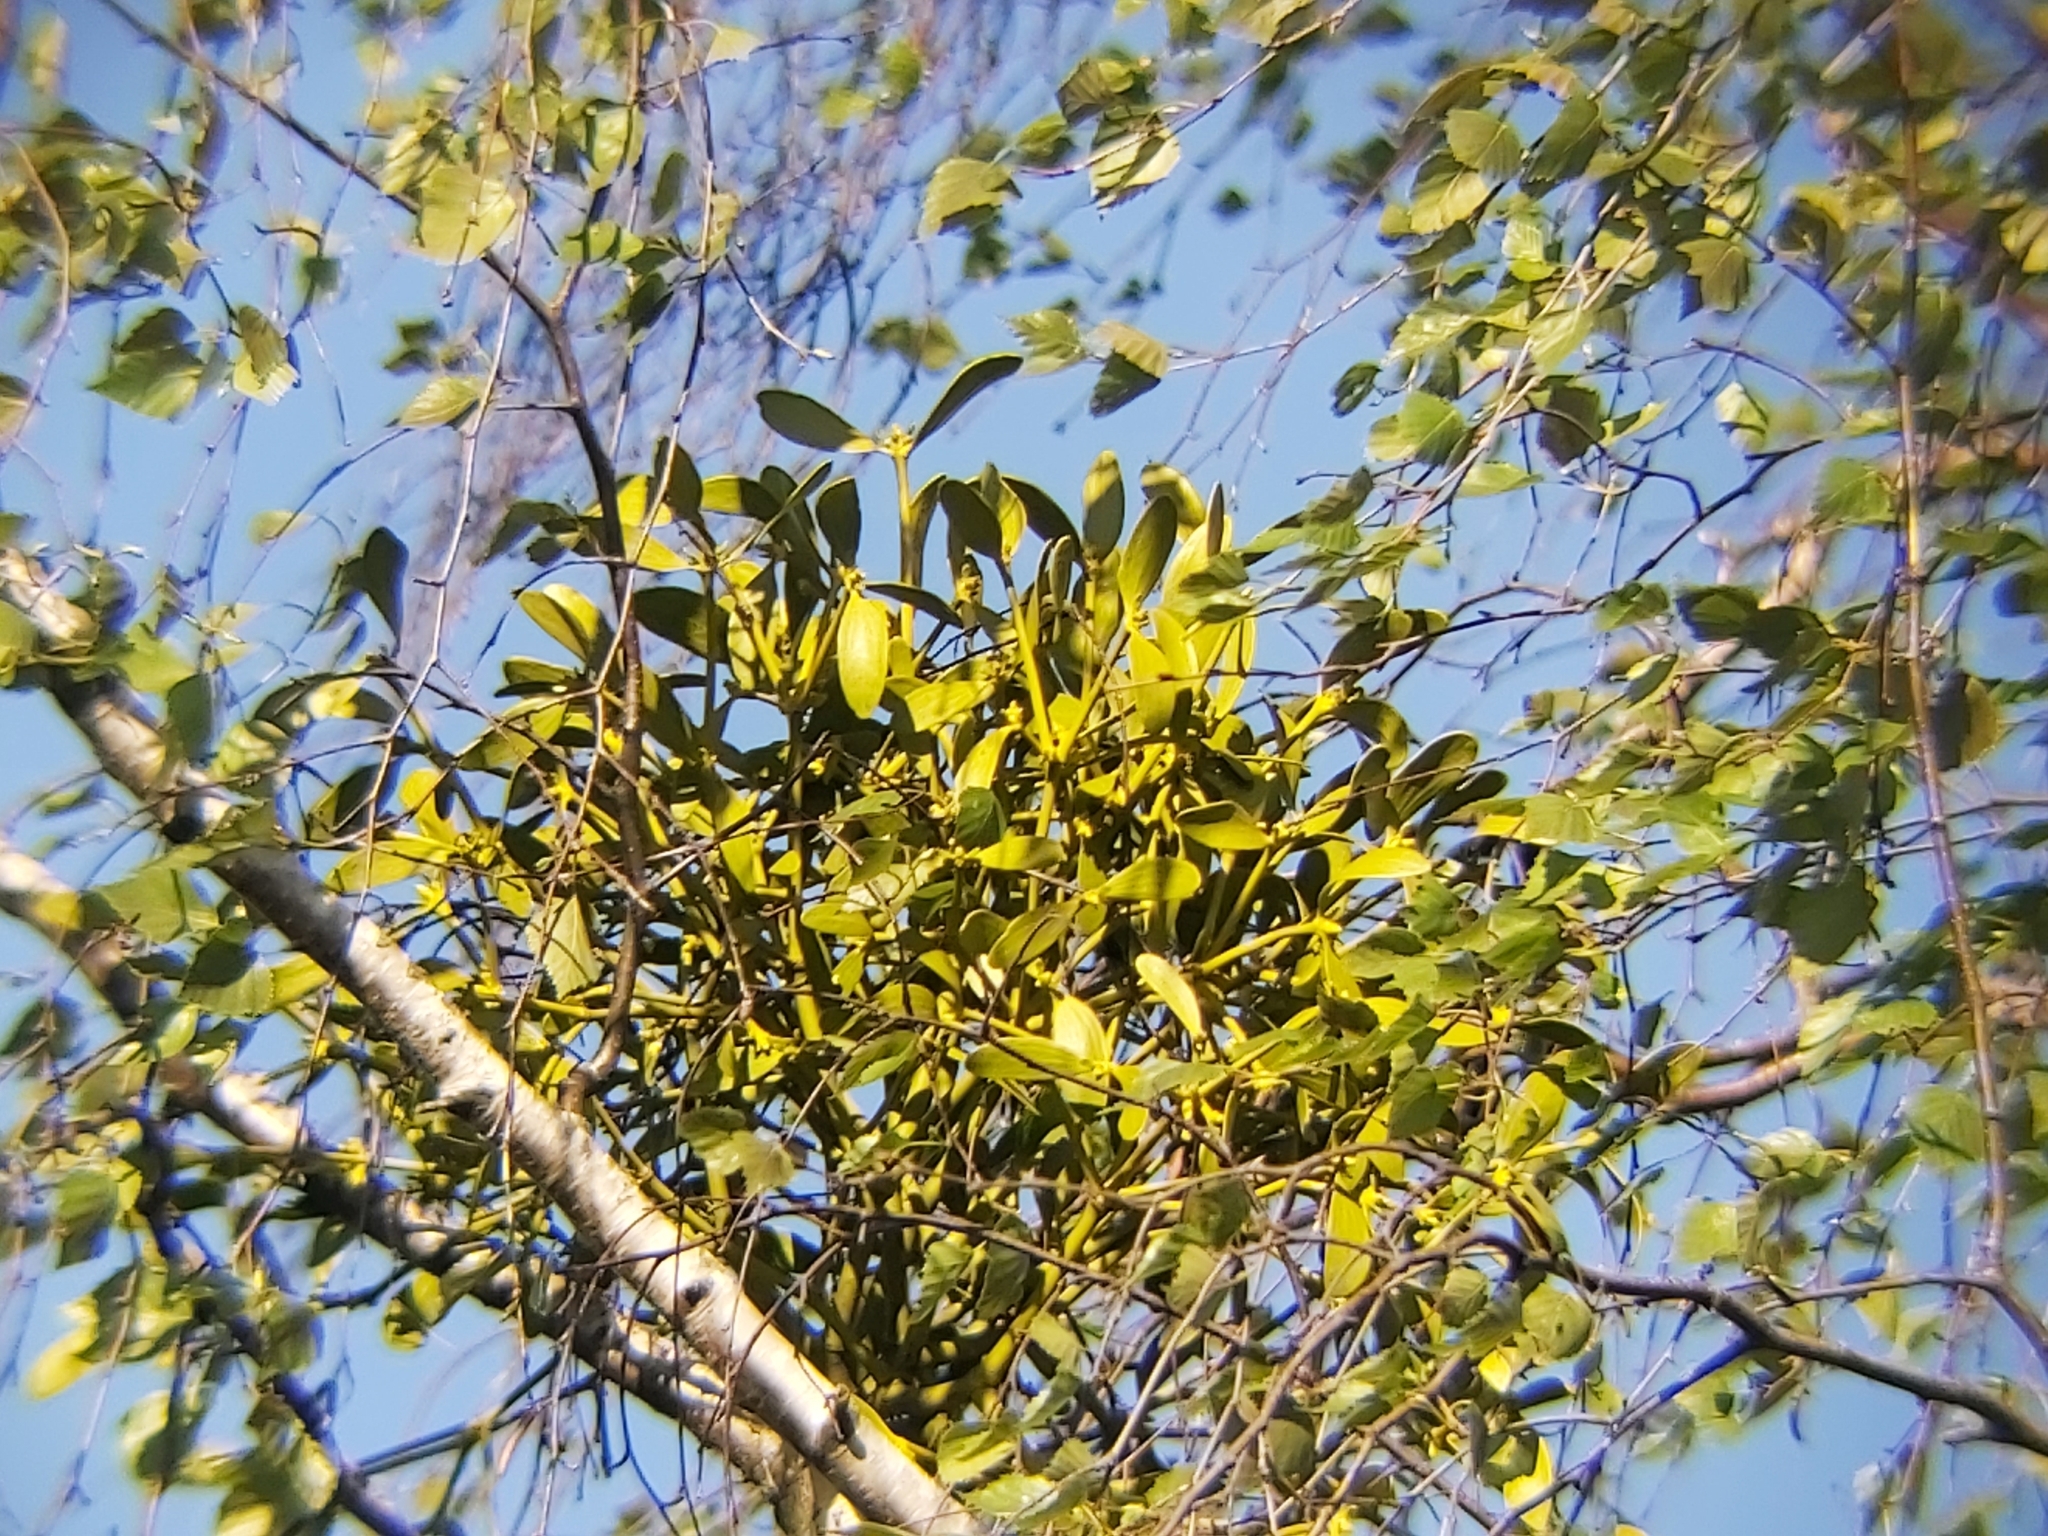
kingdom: Plantae
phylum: Tracheophyta
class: Magnoliopsida
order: Santalales
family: Viscaceae
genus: Viscum
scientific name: Viscum album
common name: Mistletoe
